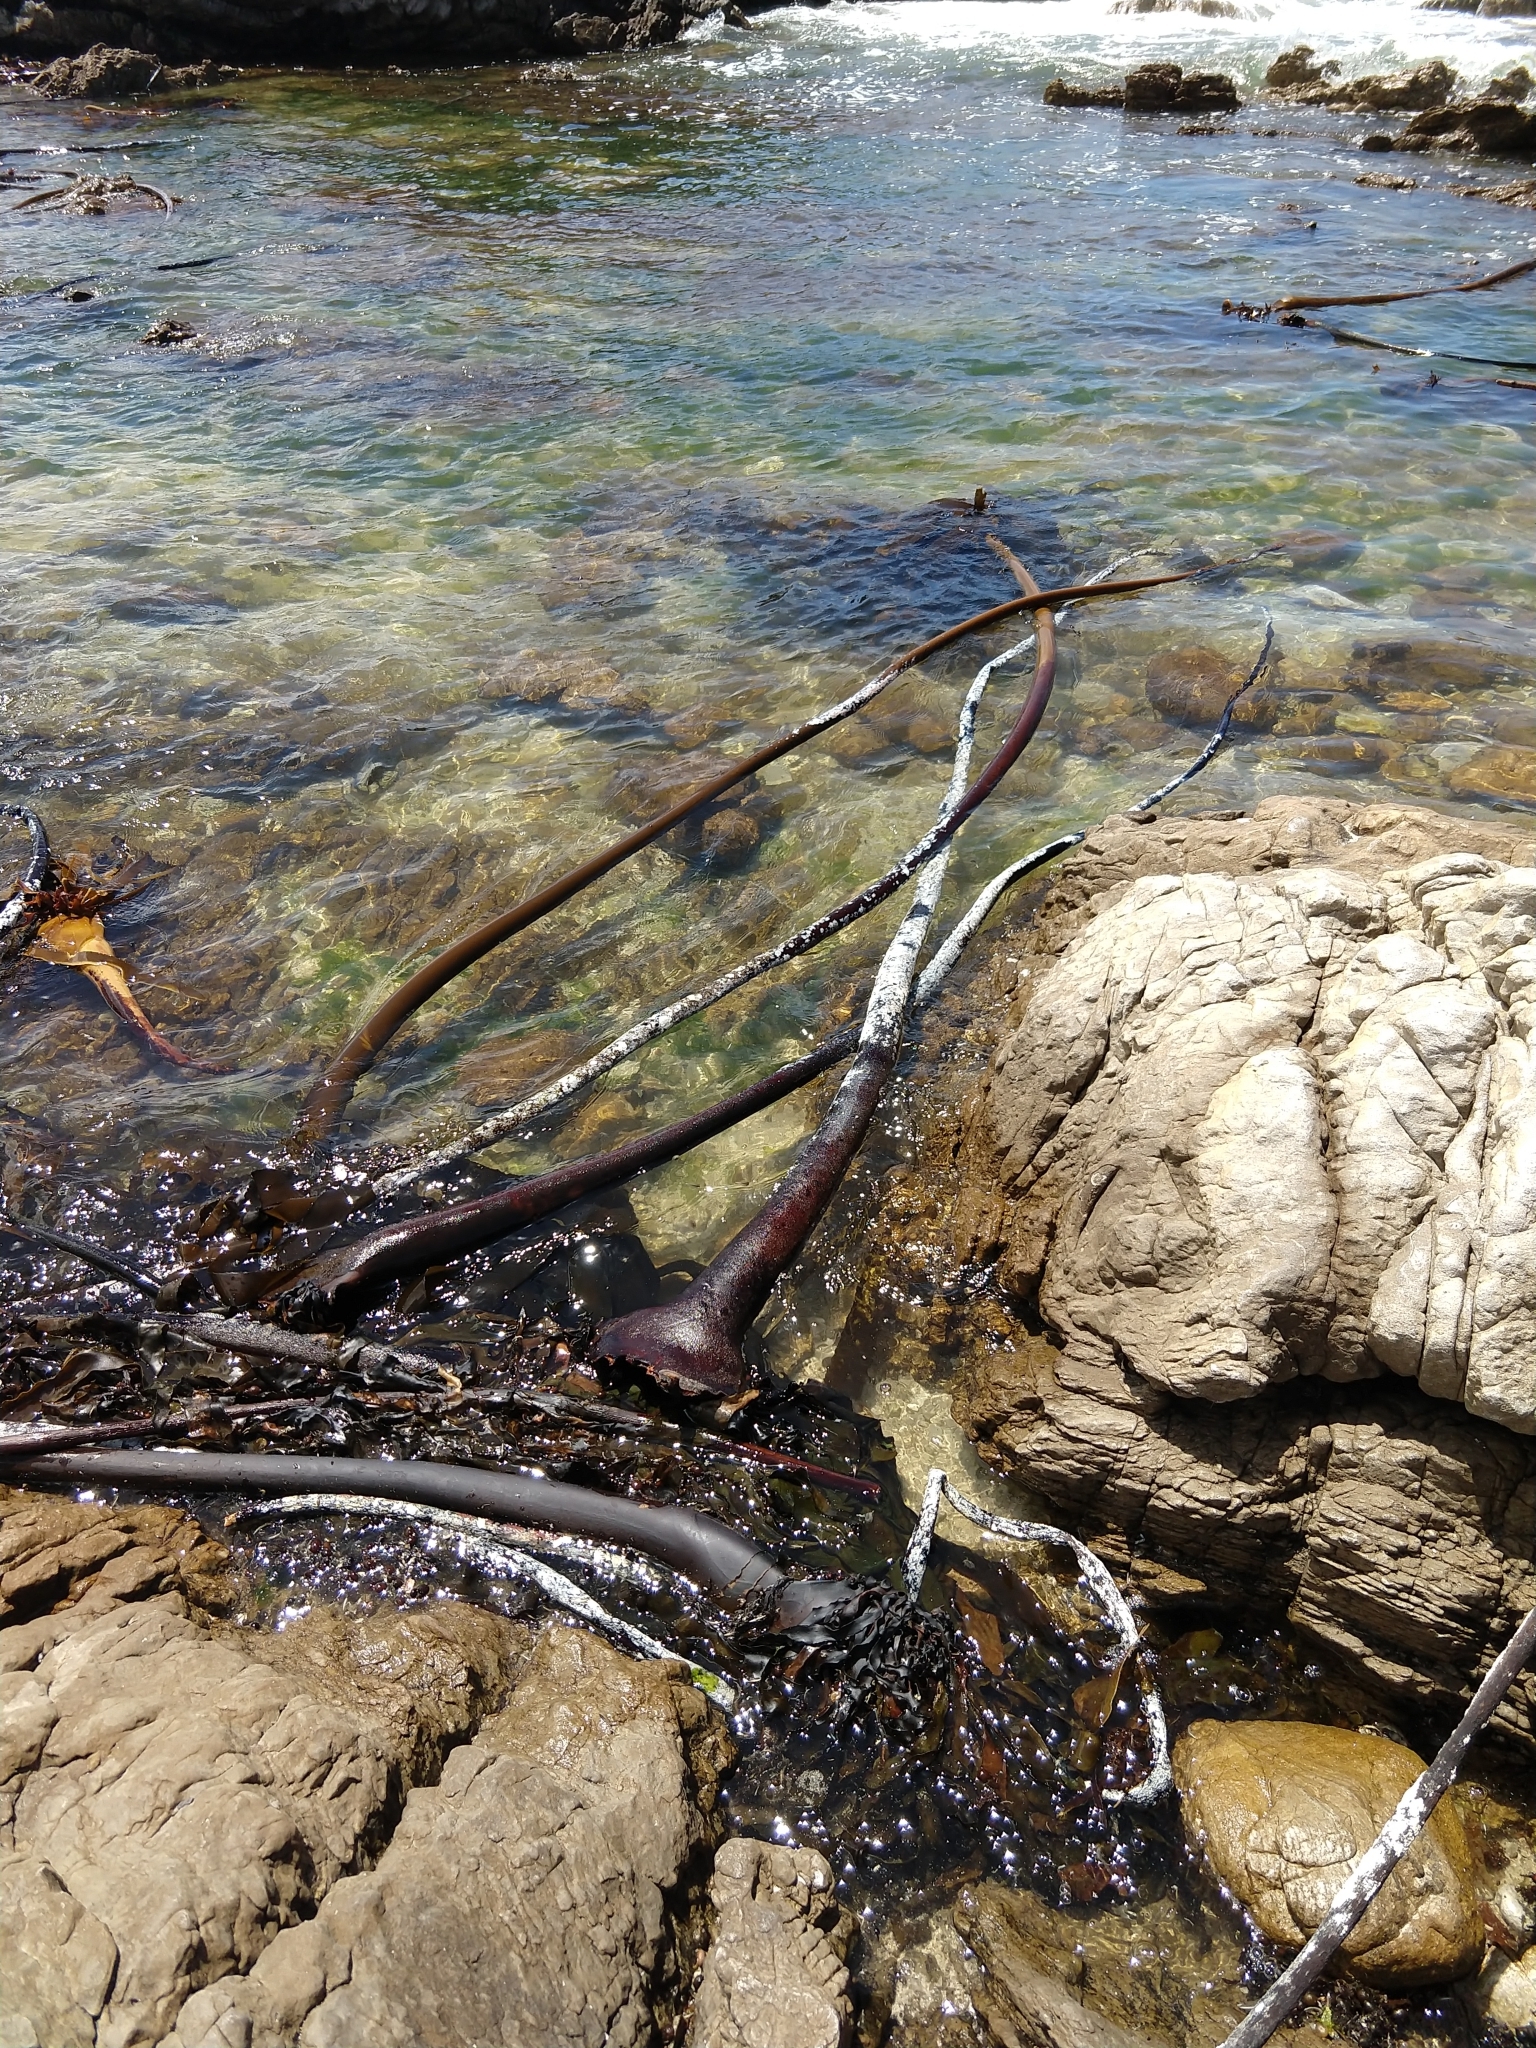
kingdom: Chromista
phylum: Ochrophyta
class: Phaeophyceae
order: Laminariales
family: Lessoniaceae
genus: Ecklonia
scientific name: Ecklonia
